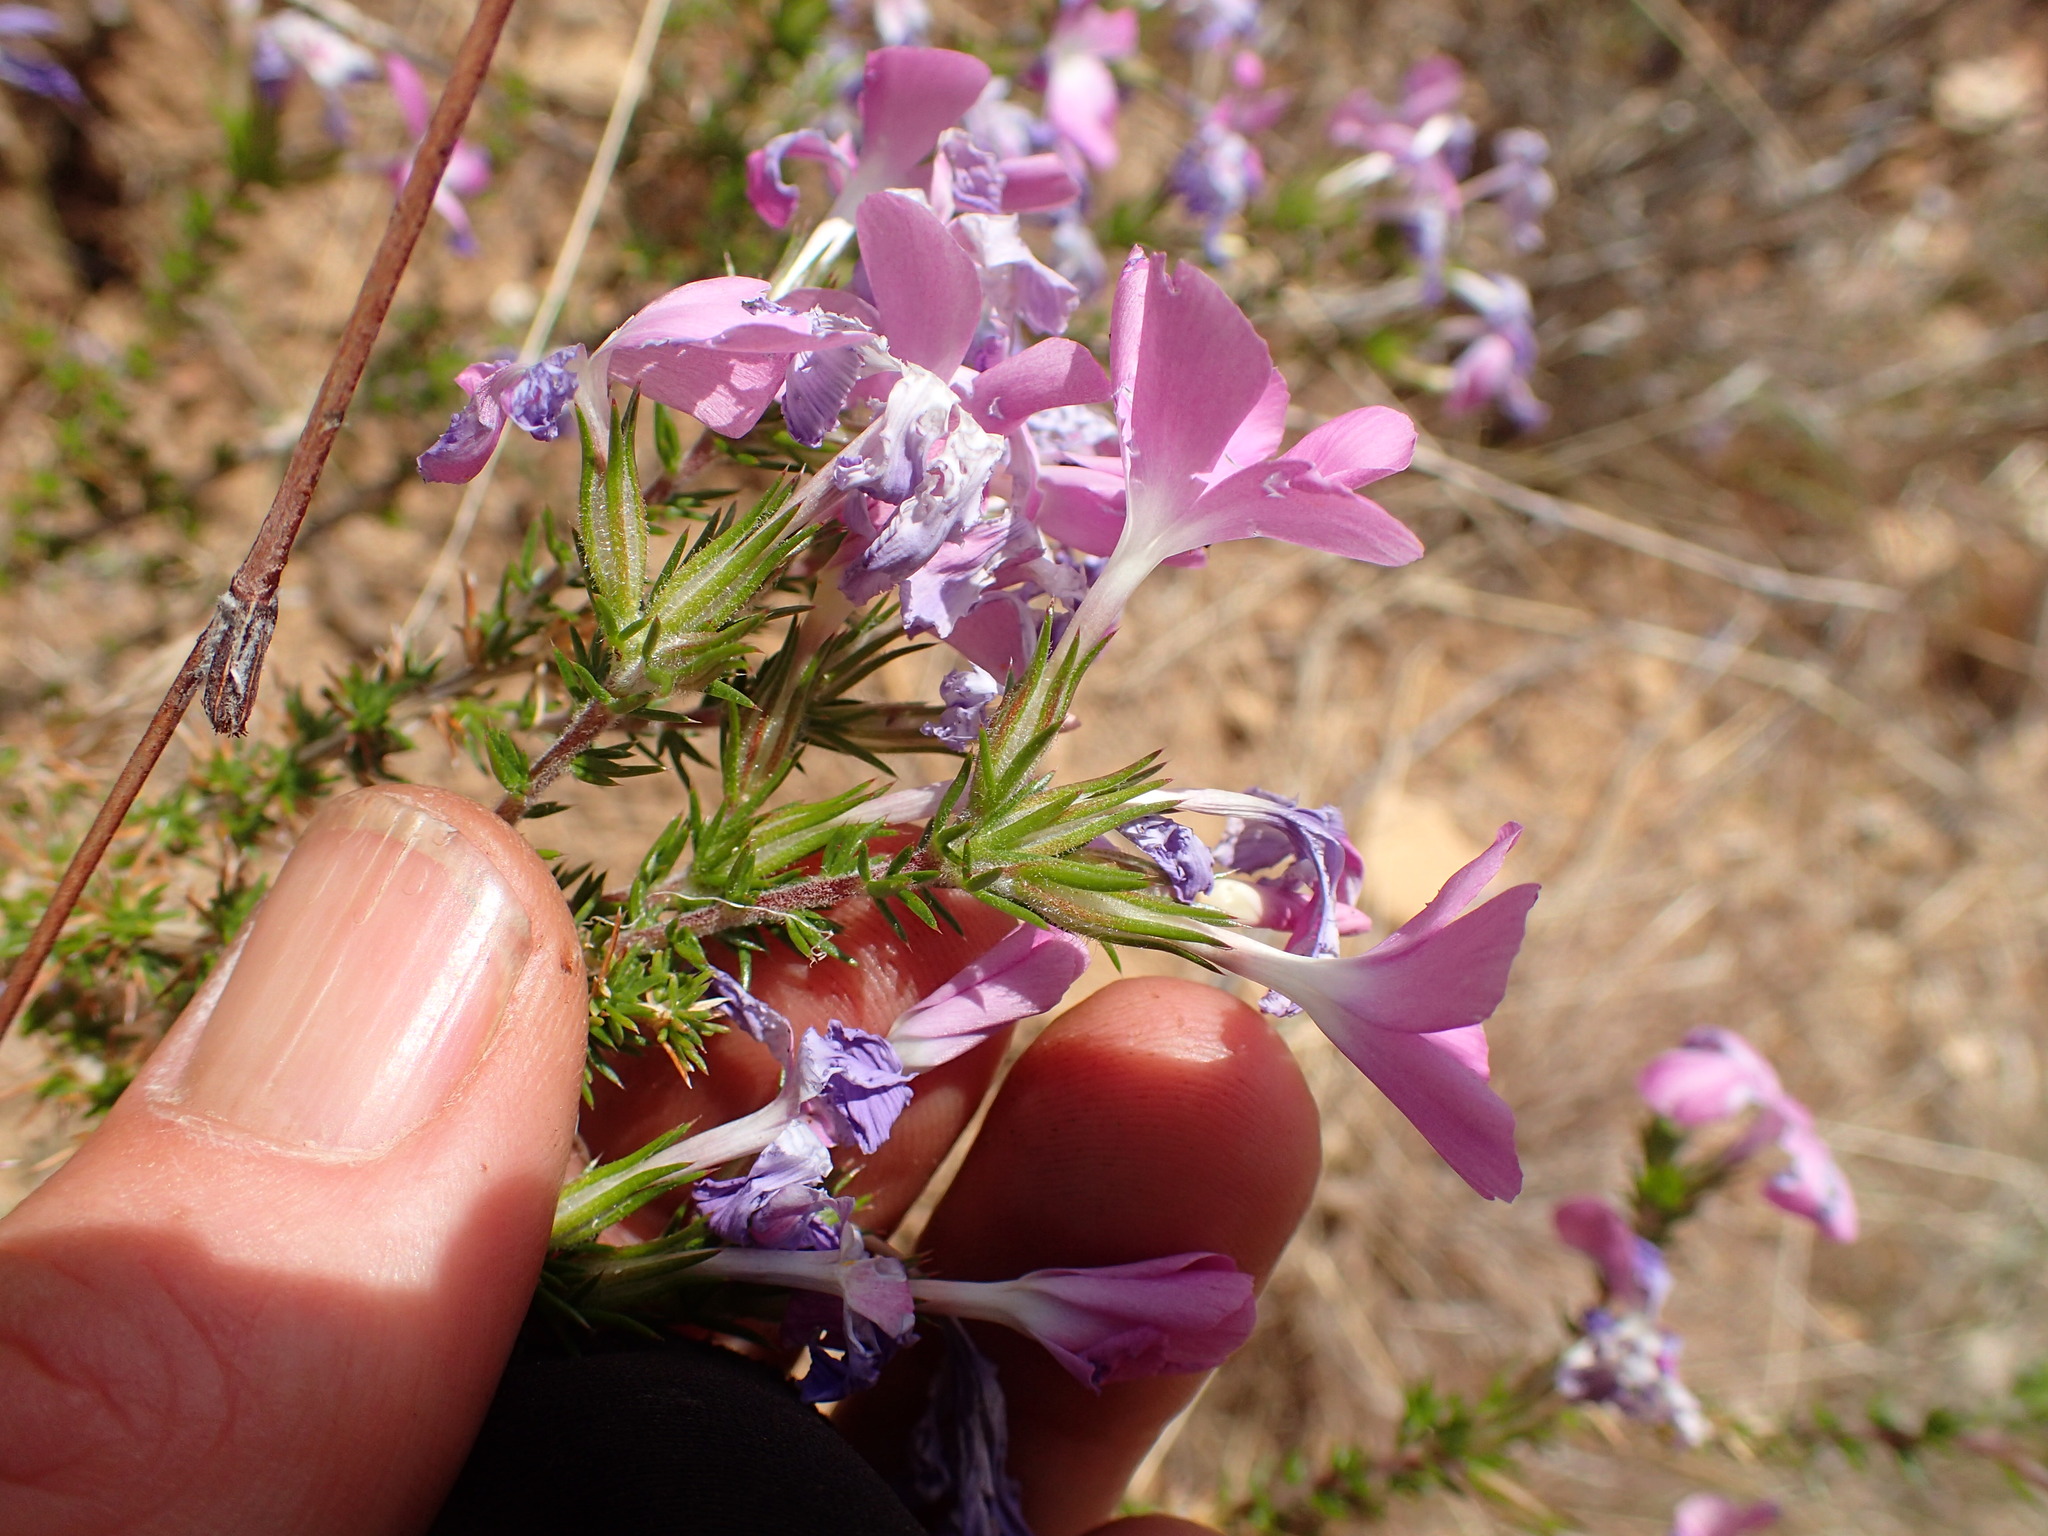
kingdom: Plantae
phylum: Tracheophyta
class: Magnoliopsida
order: Ericales
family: Polemoniaceae
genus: Linanthus
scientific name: Linanthus californicus
